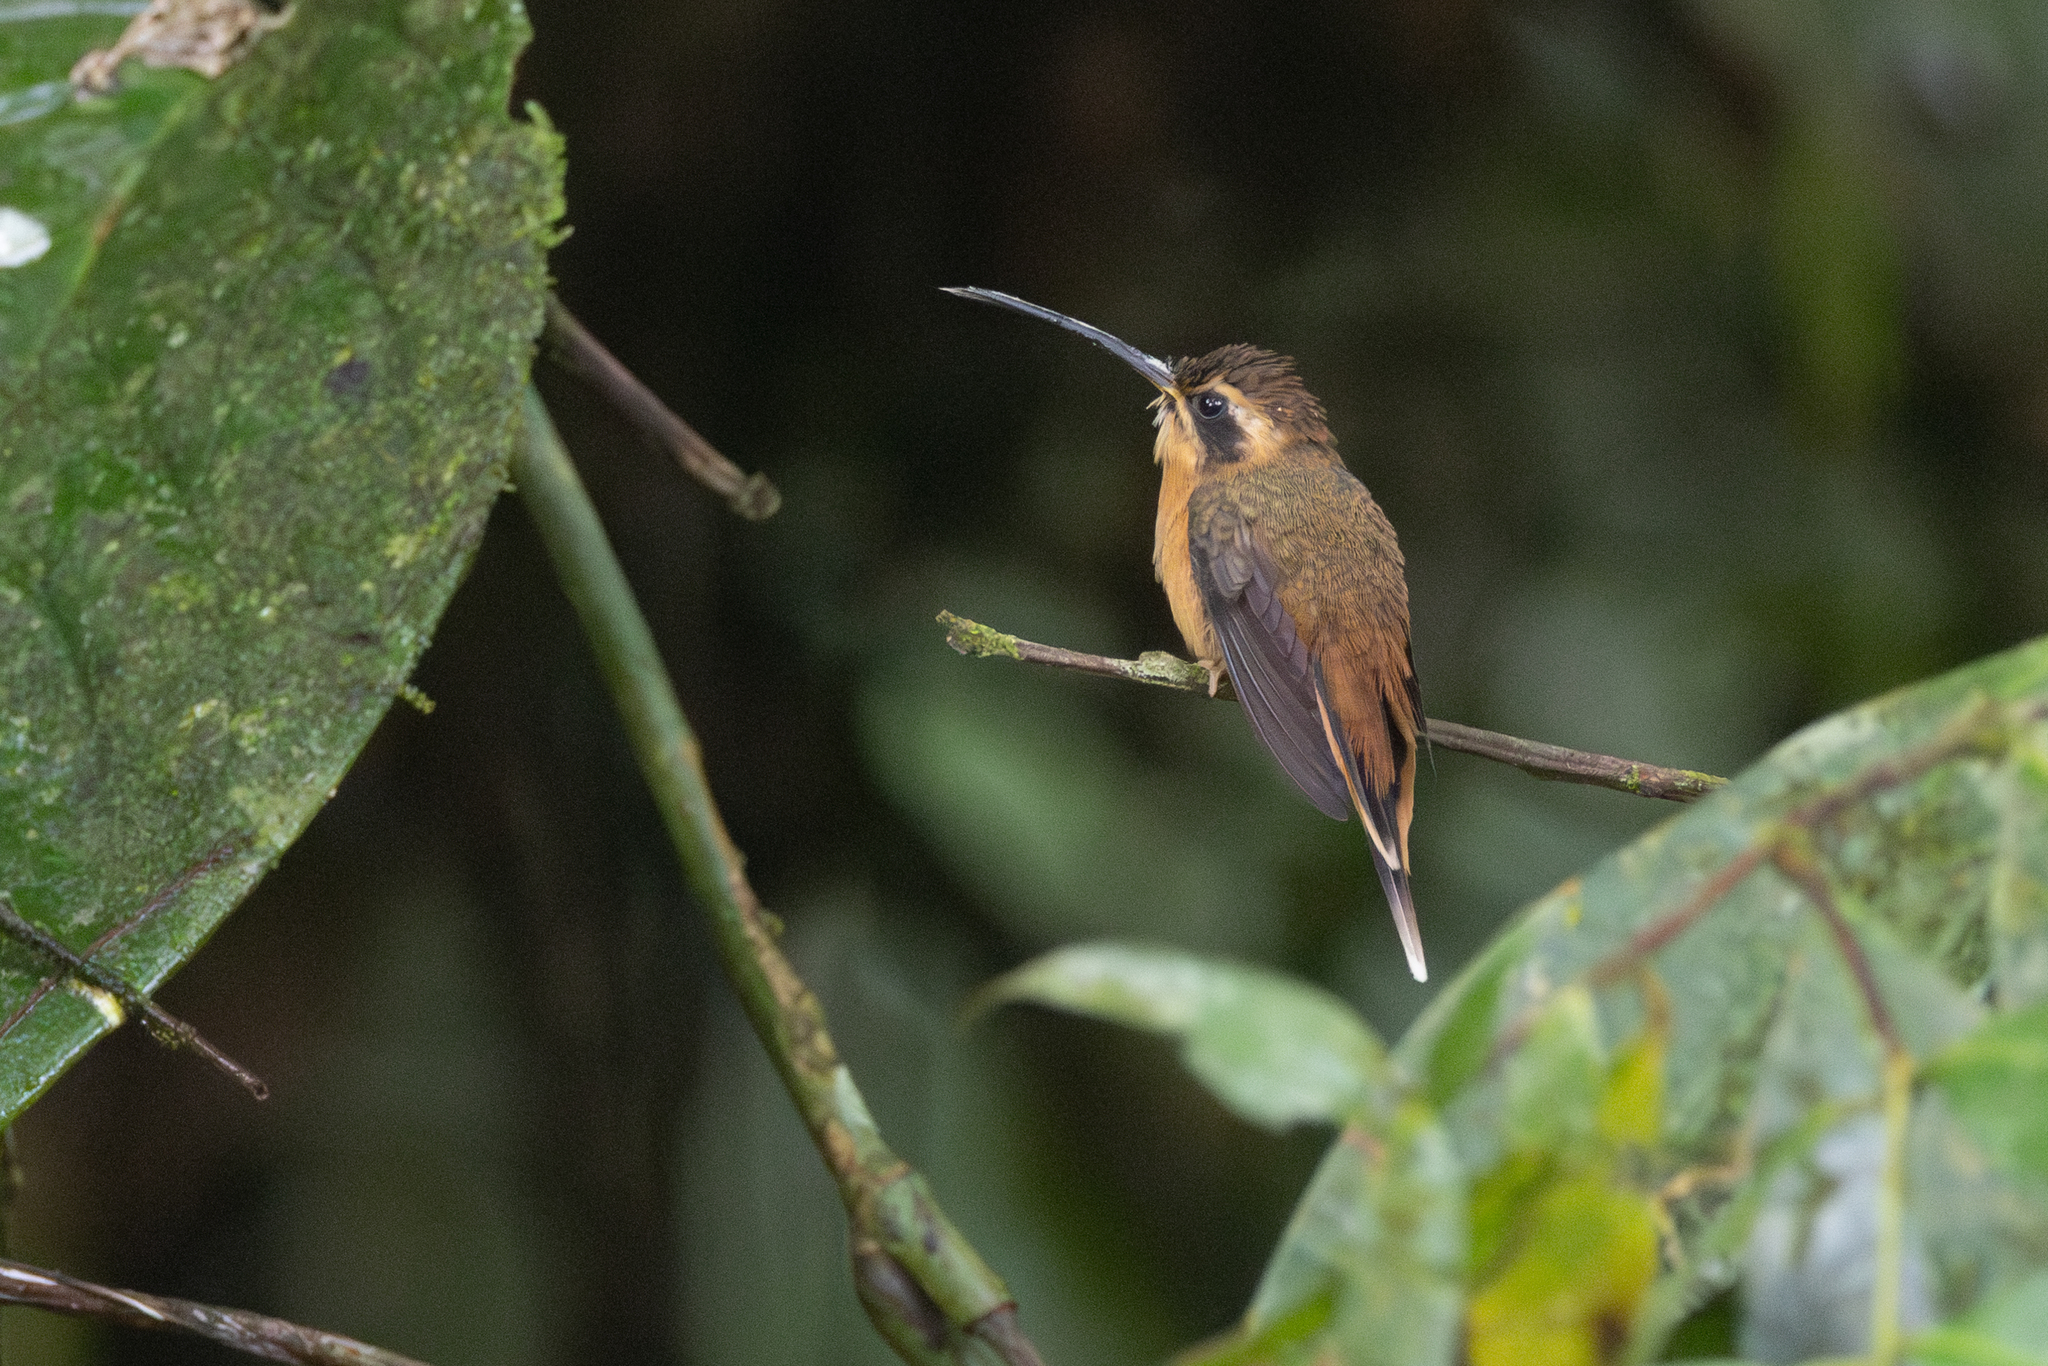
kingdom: Animalia
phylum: Chordata
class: Aves
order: Apodiformes
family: Trochilidae
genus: Phaethornis
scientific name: Phaethornis griseogularis
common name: Gray-chinned hermit
